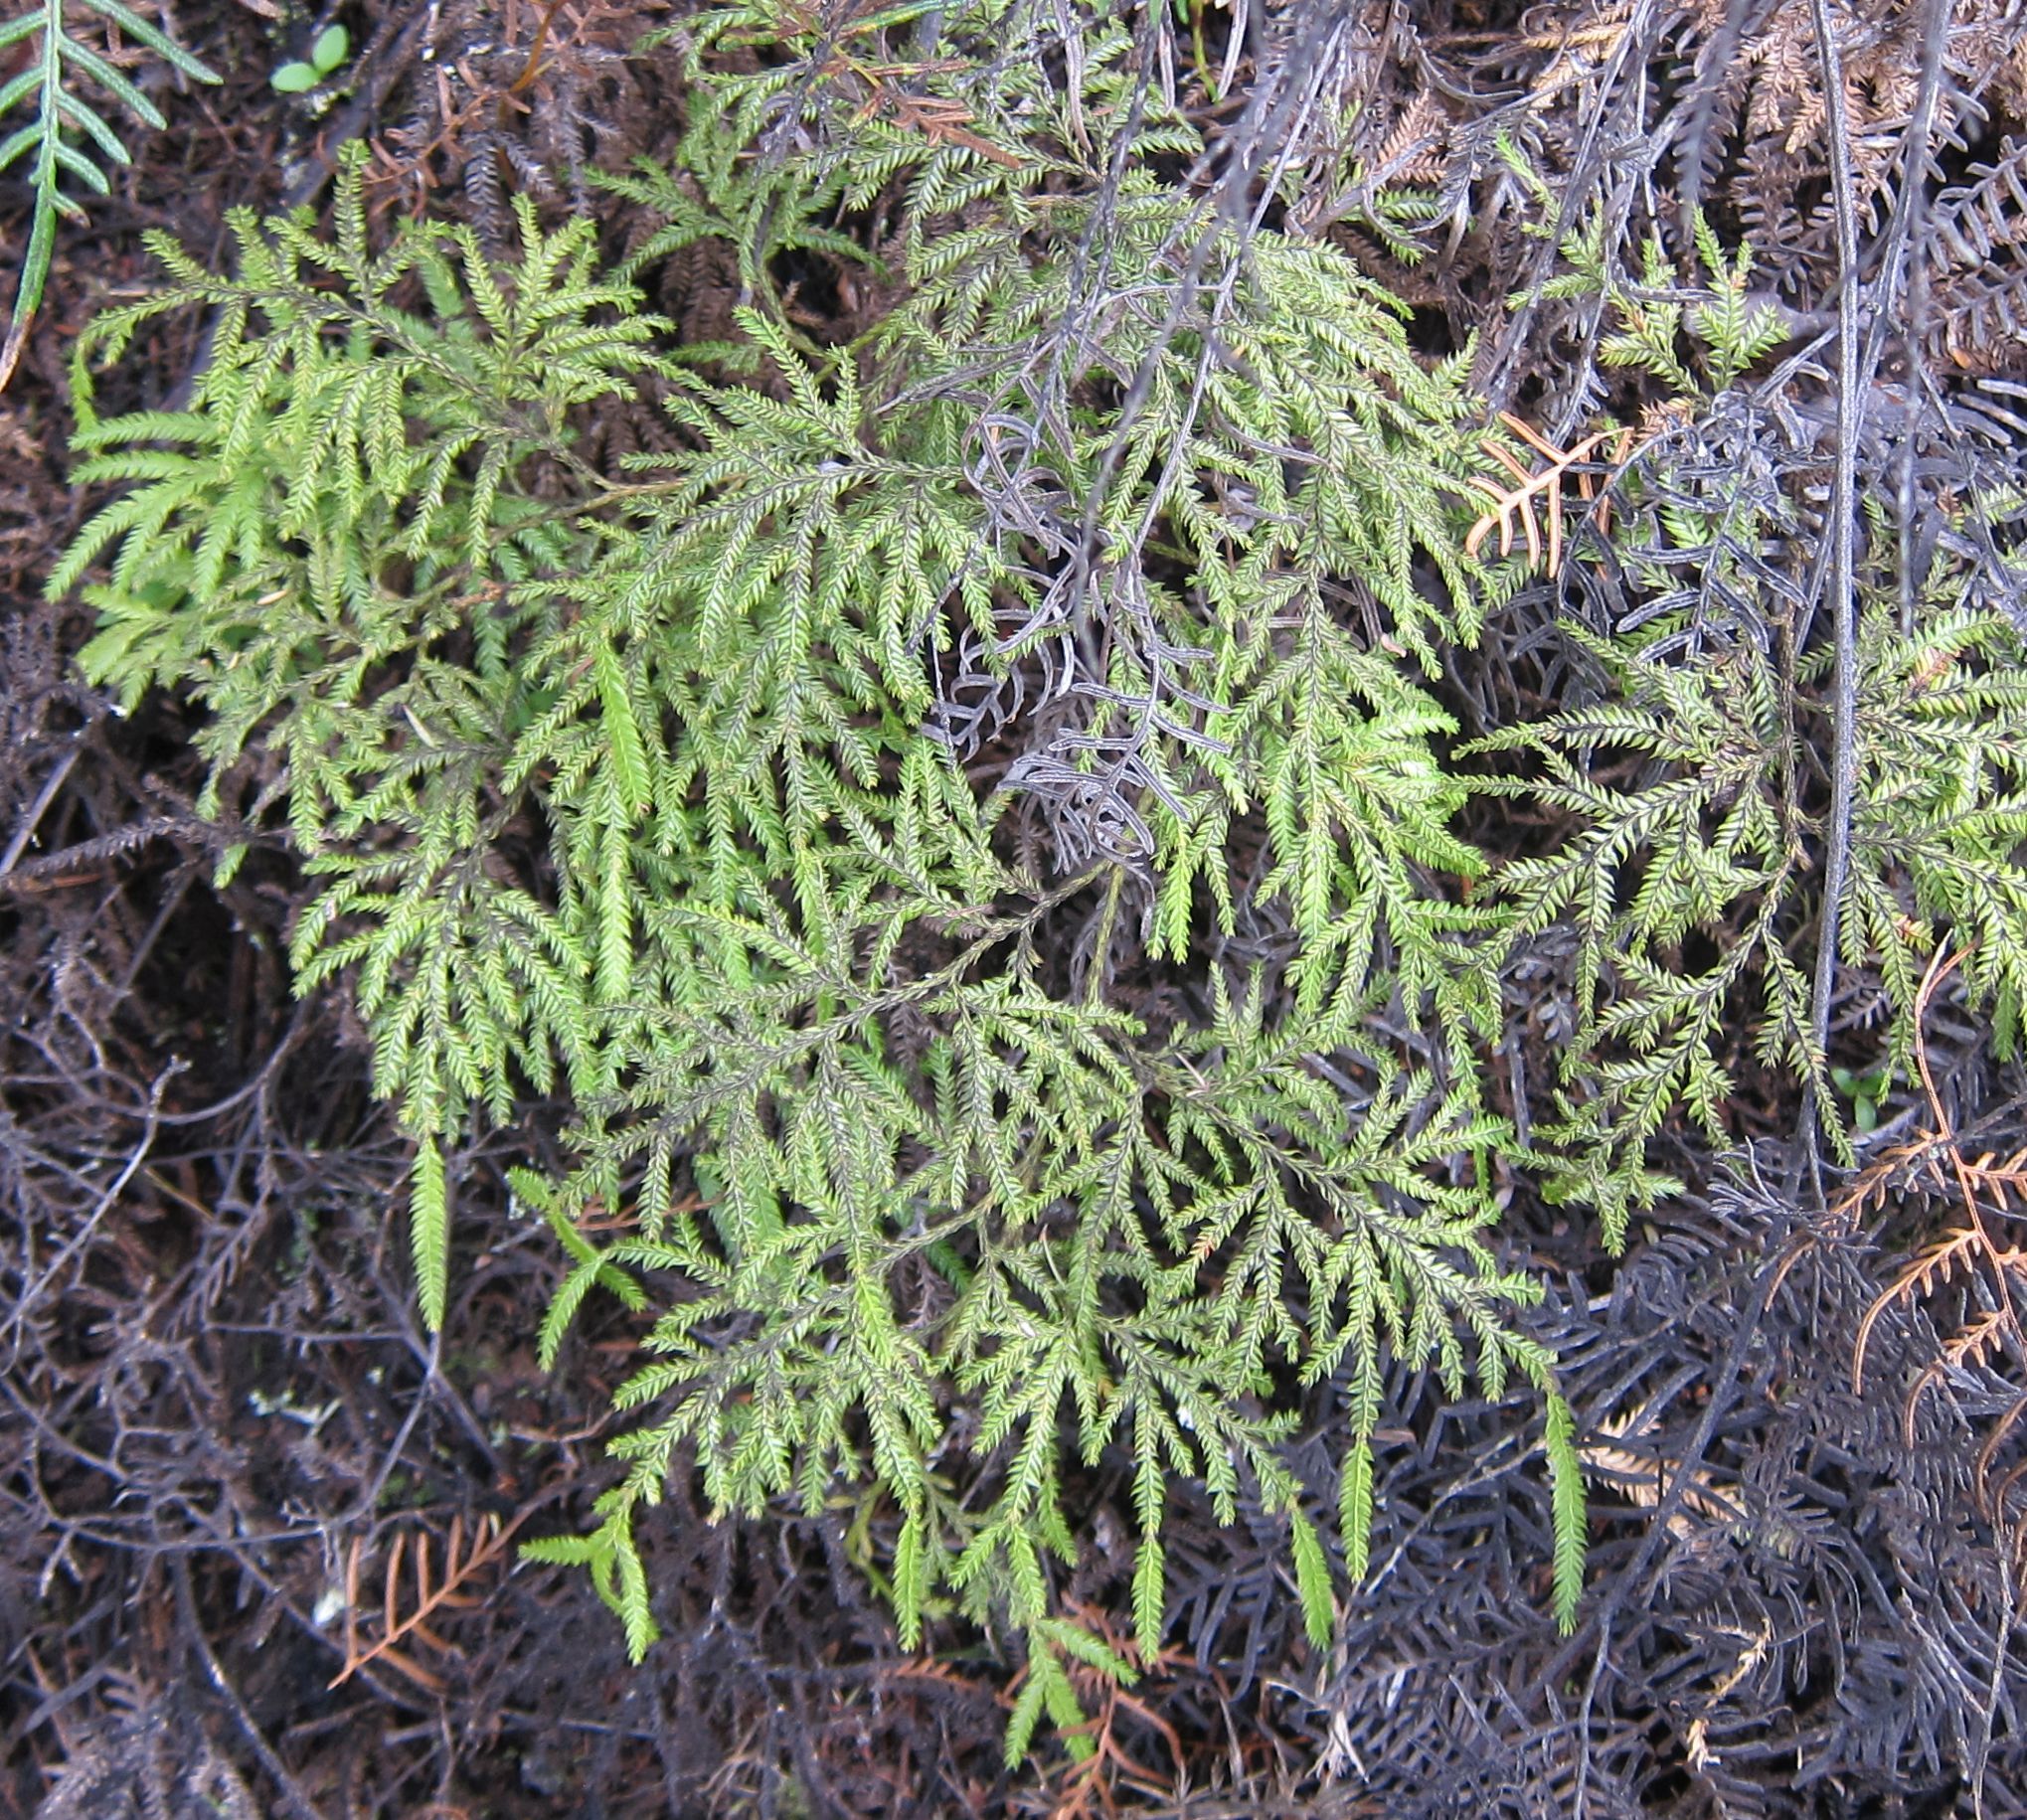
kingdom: Plantae
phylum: Tracheophyta
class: Lycopodiopsida
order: Lycopodiales
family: Lycopodiaceae
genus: Lycopodium
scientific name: Lycopodium volubile
